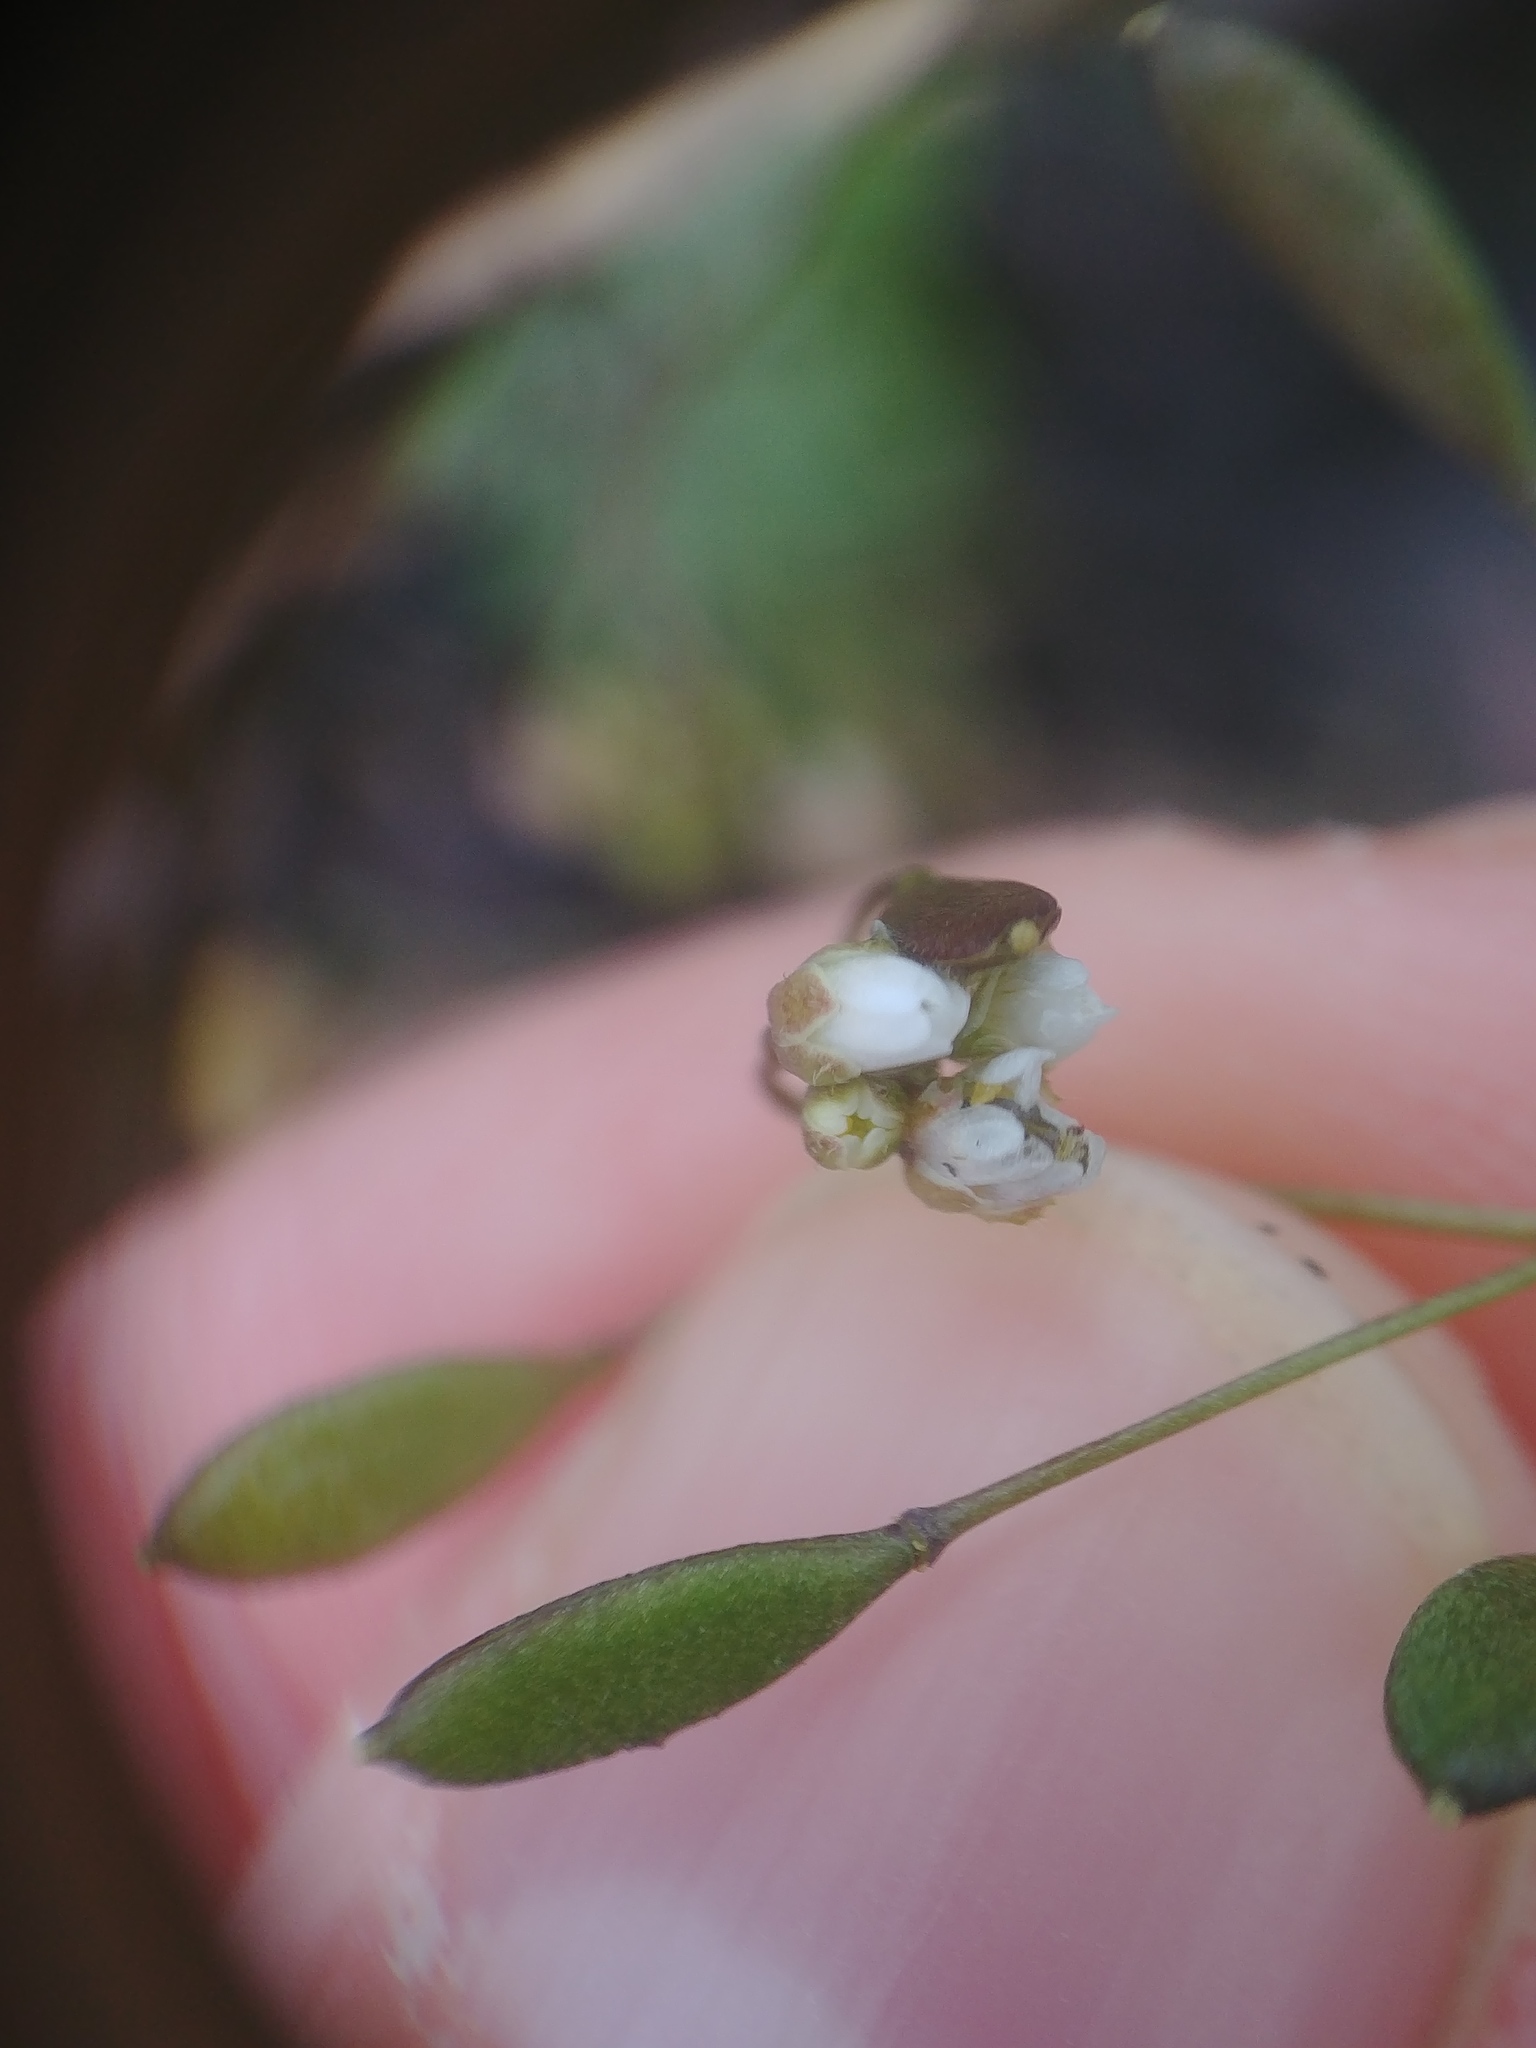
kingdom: Plantae
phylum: Tracheophyta
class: Magnoliopsida
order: Brassicales
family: Brassicaceae
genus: Draba
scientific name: Draba verna
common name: Spring draba
